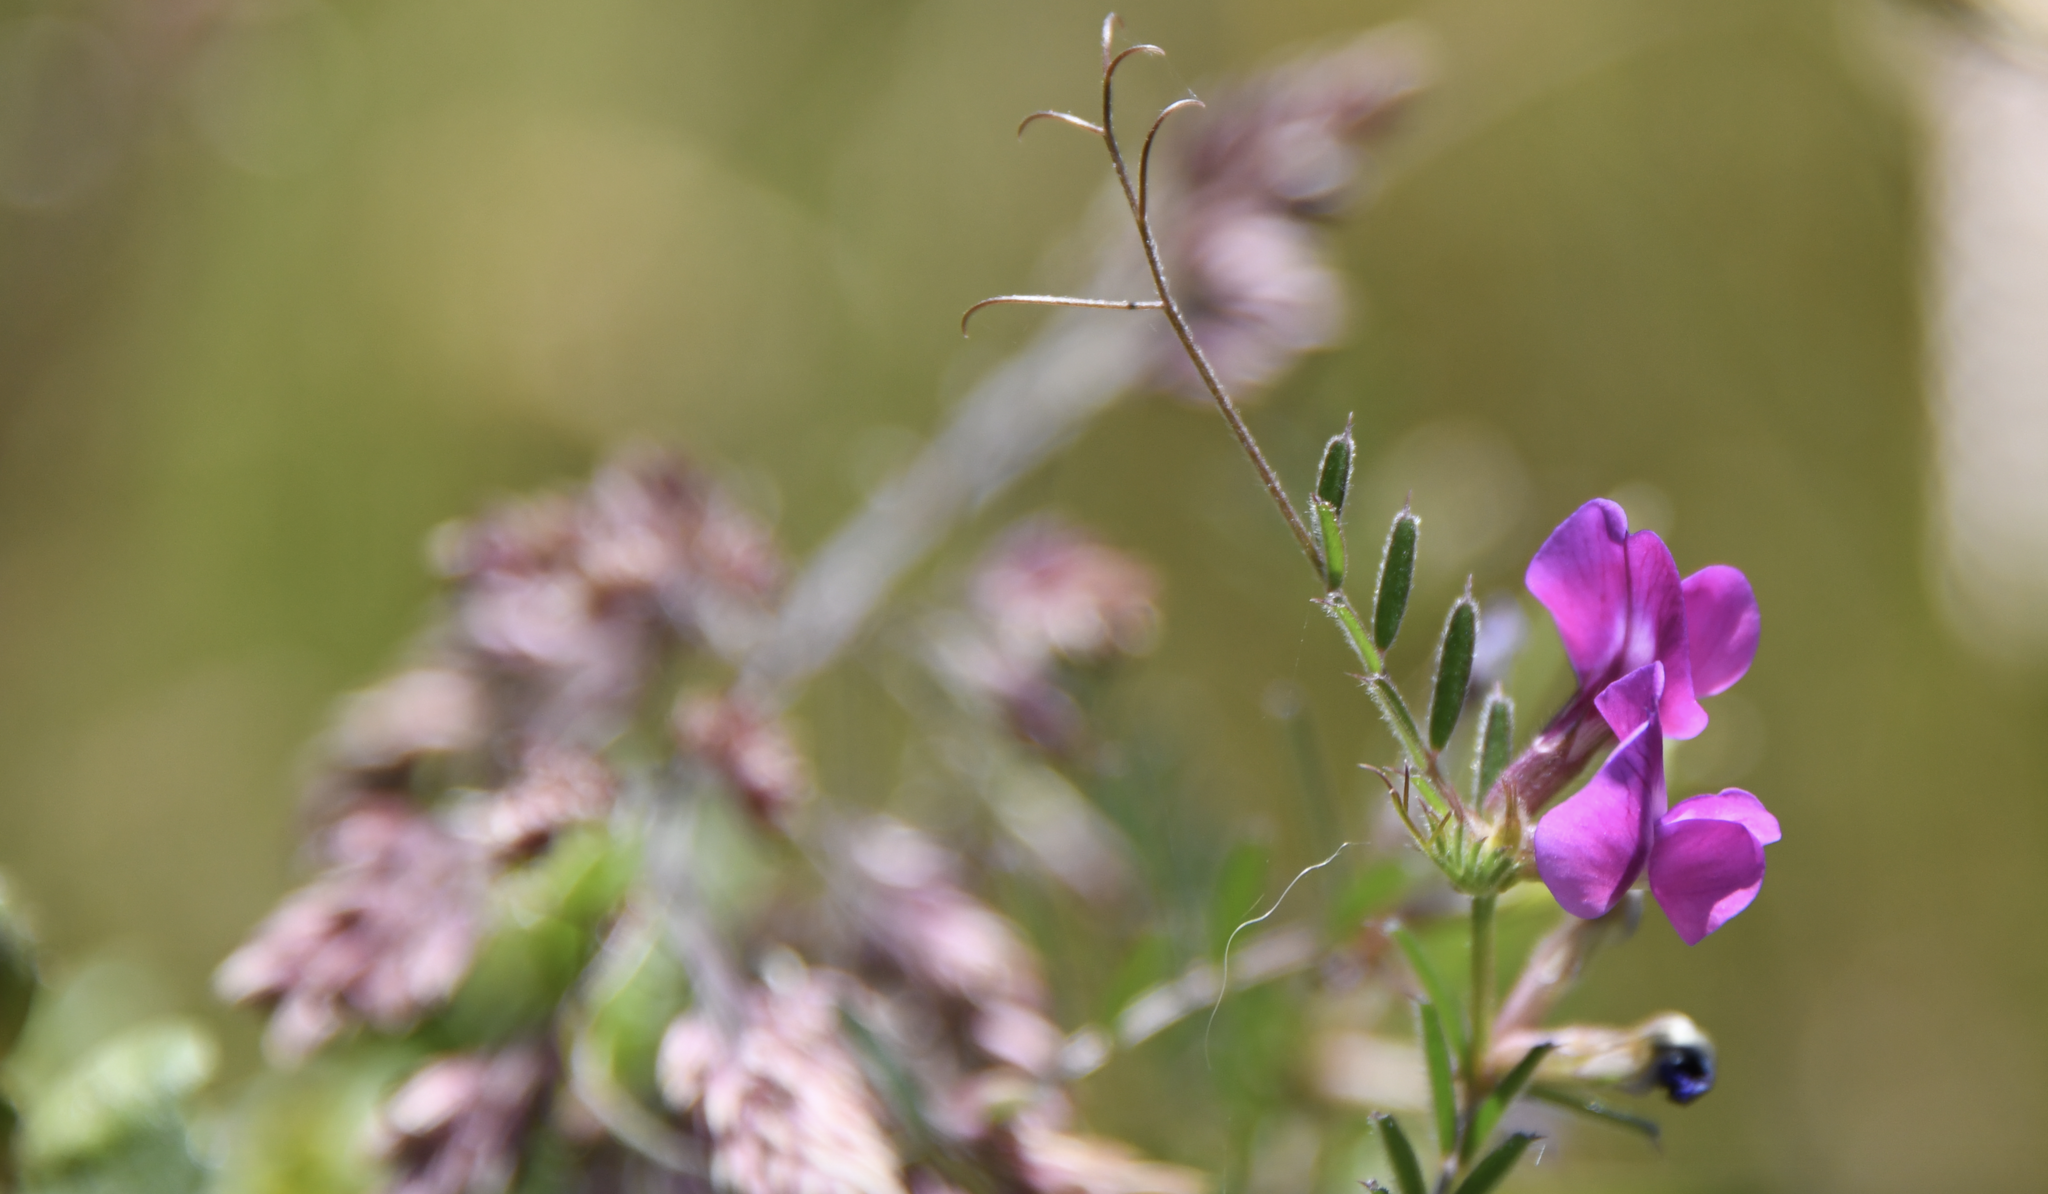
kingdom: Plantae
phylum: Tracheophyta
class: Magnoliopsida
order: Fabales
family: Fabaceae
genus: Vicia
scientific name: Vicia sativa
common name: Garden vetch
